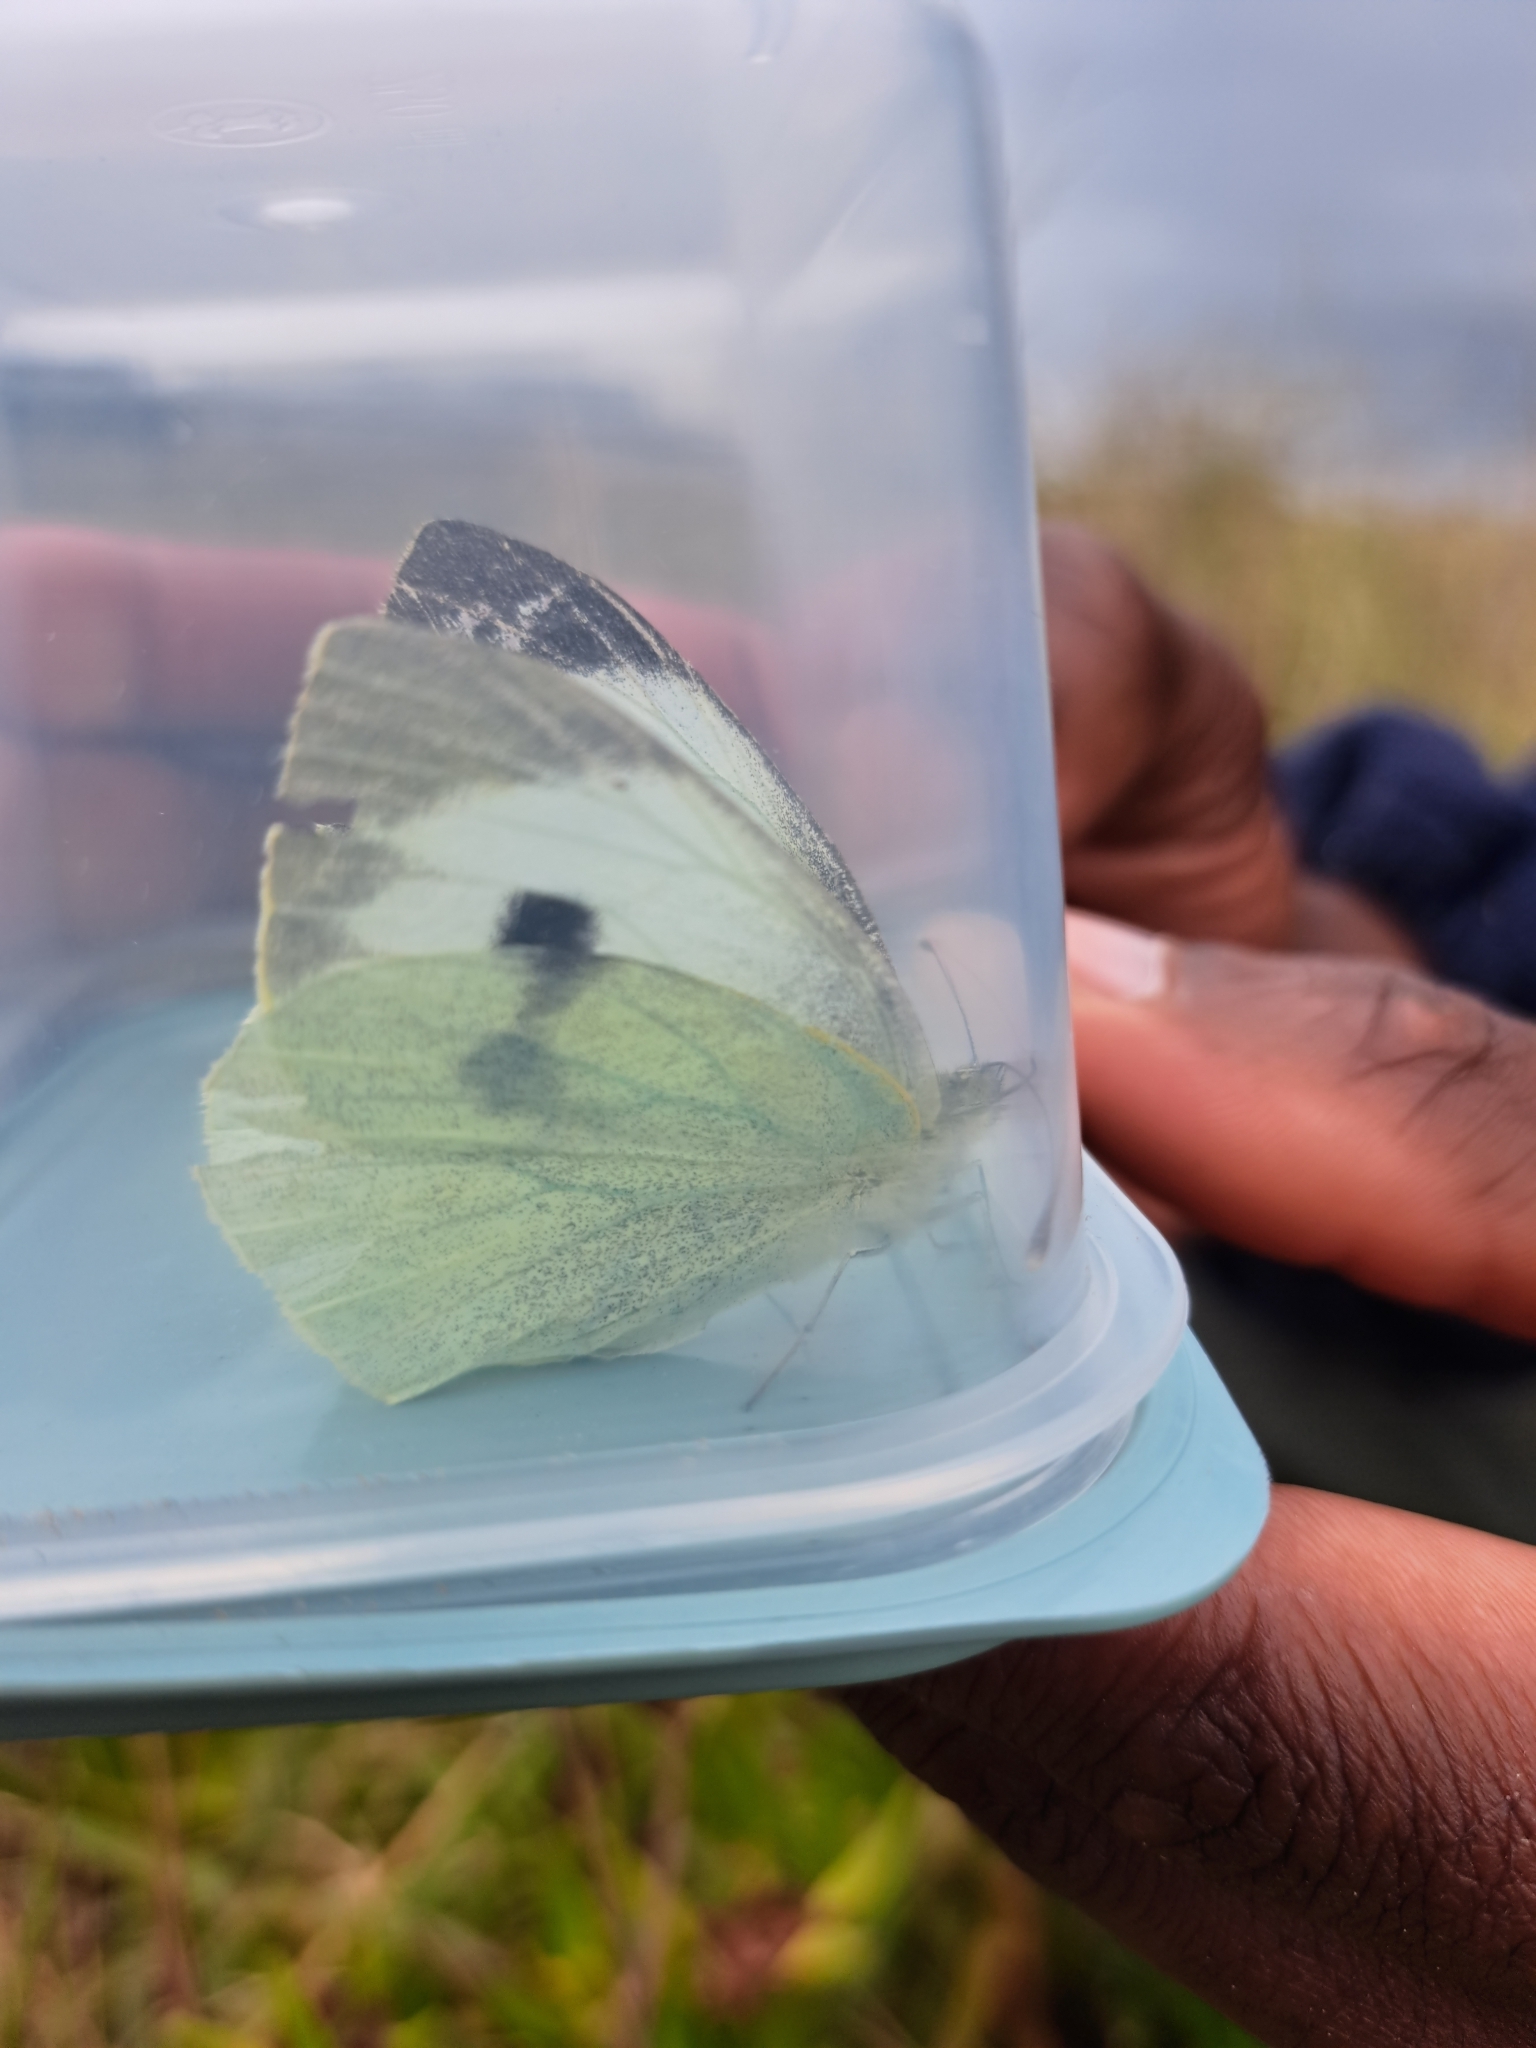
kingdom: Animalia
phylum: Arthropoda
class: Insecta
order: Lepidoptera
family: Pieridae
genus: Pieris
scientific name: Pieris brassicae
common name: Large white
